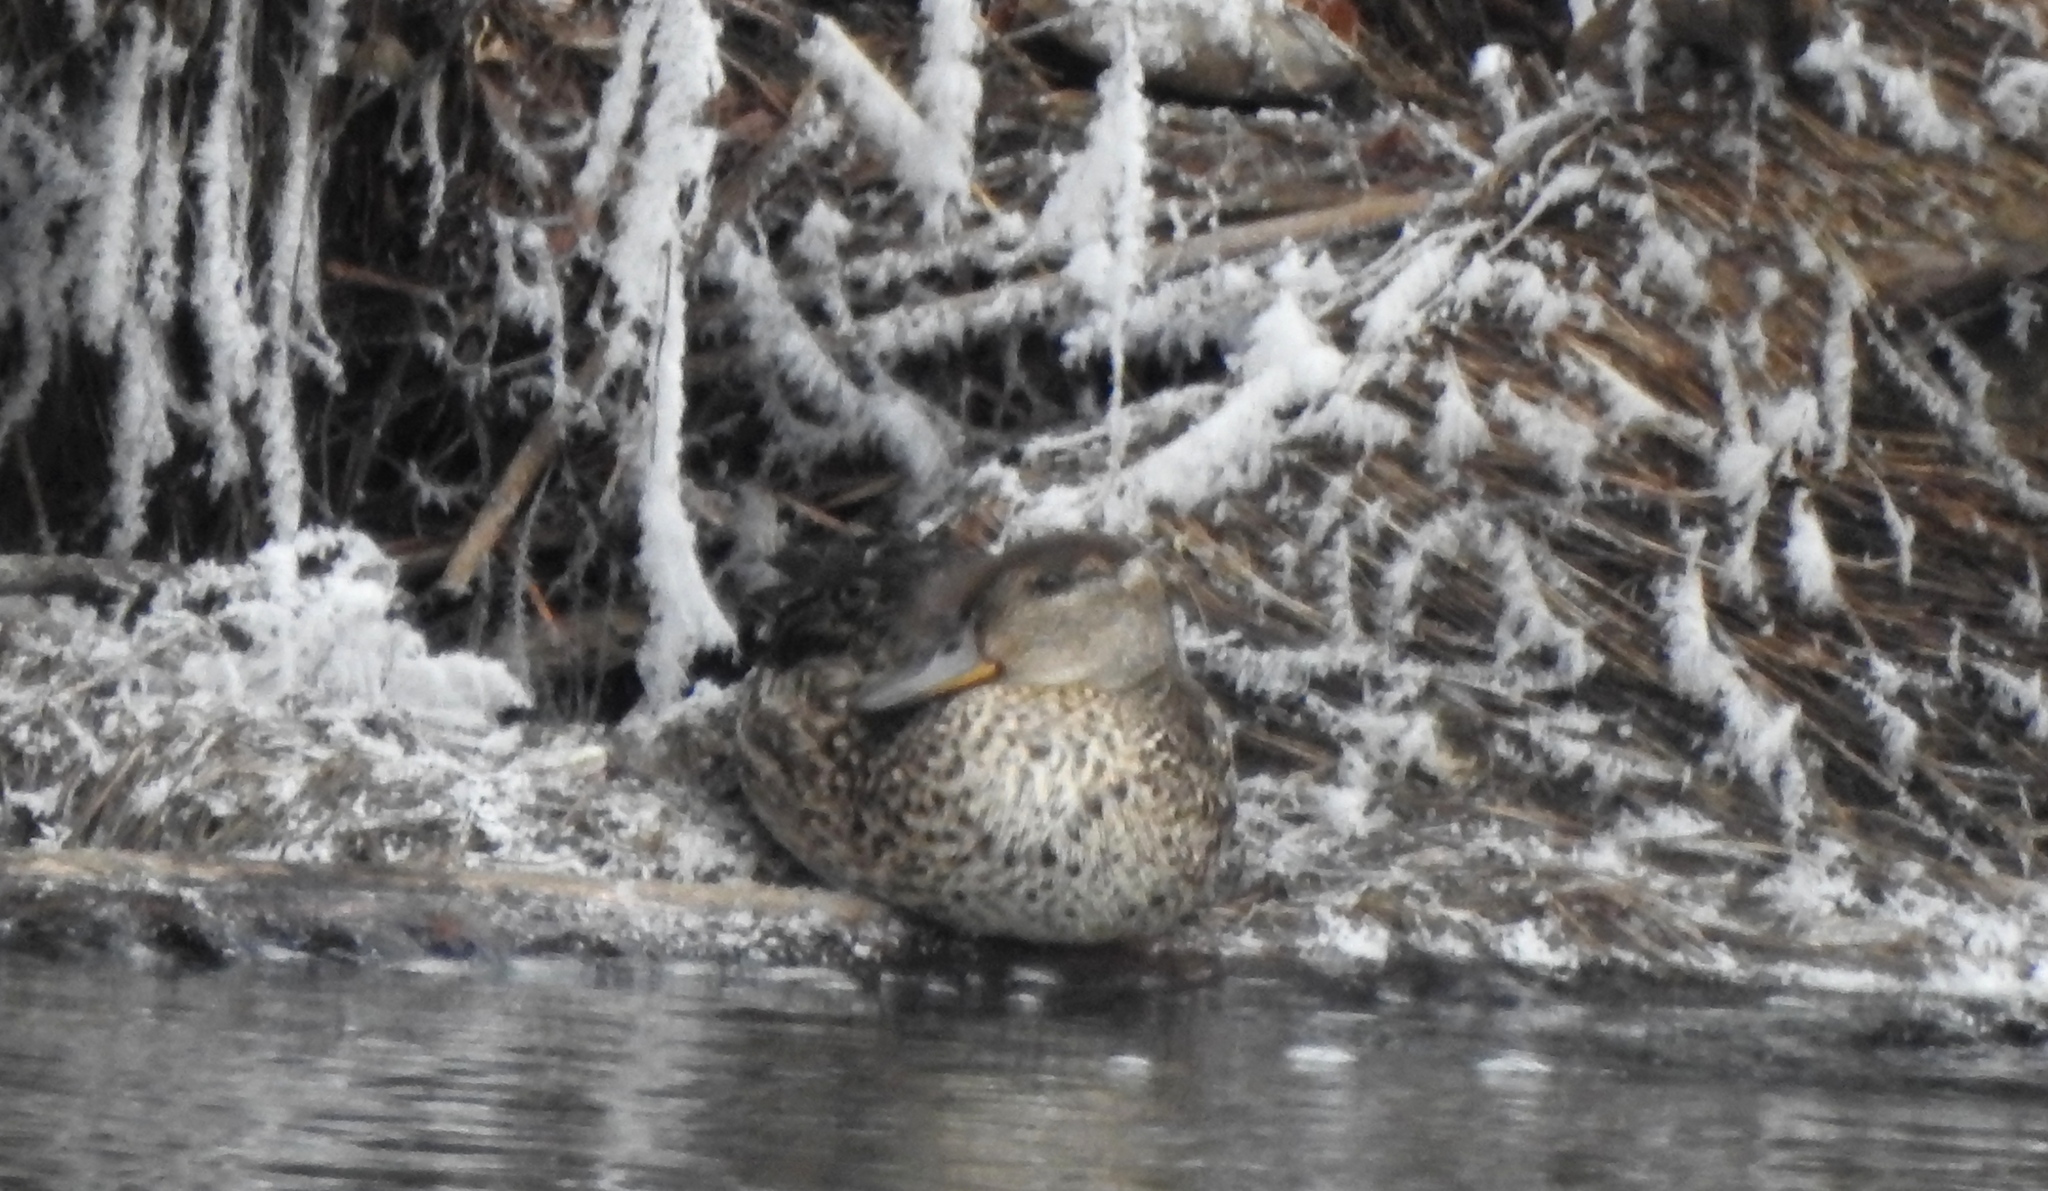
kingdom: Animalia
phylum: Chordata
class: Aves
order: Anseriformes
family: Anatidae
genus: Sibirionetta
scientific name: Sibirionetta formosa
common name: Baikal teal
